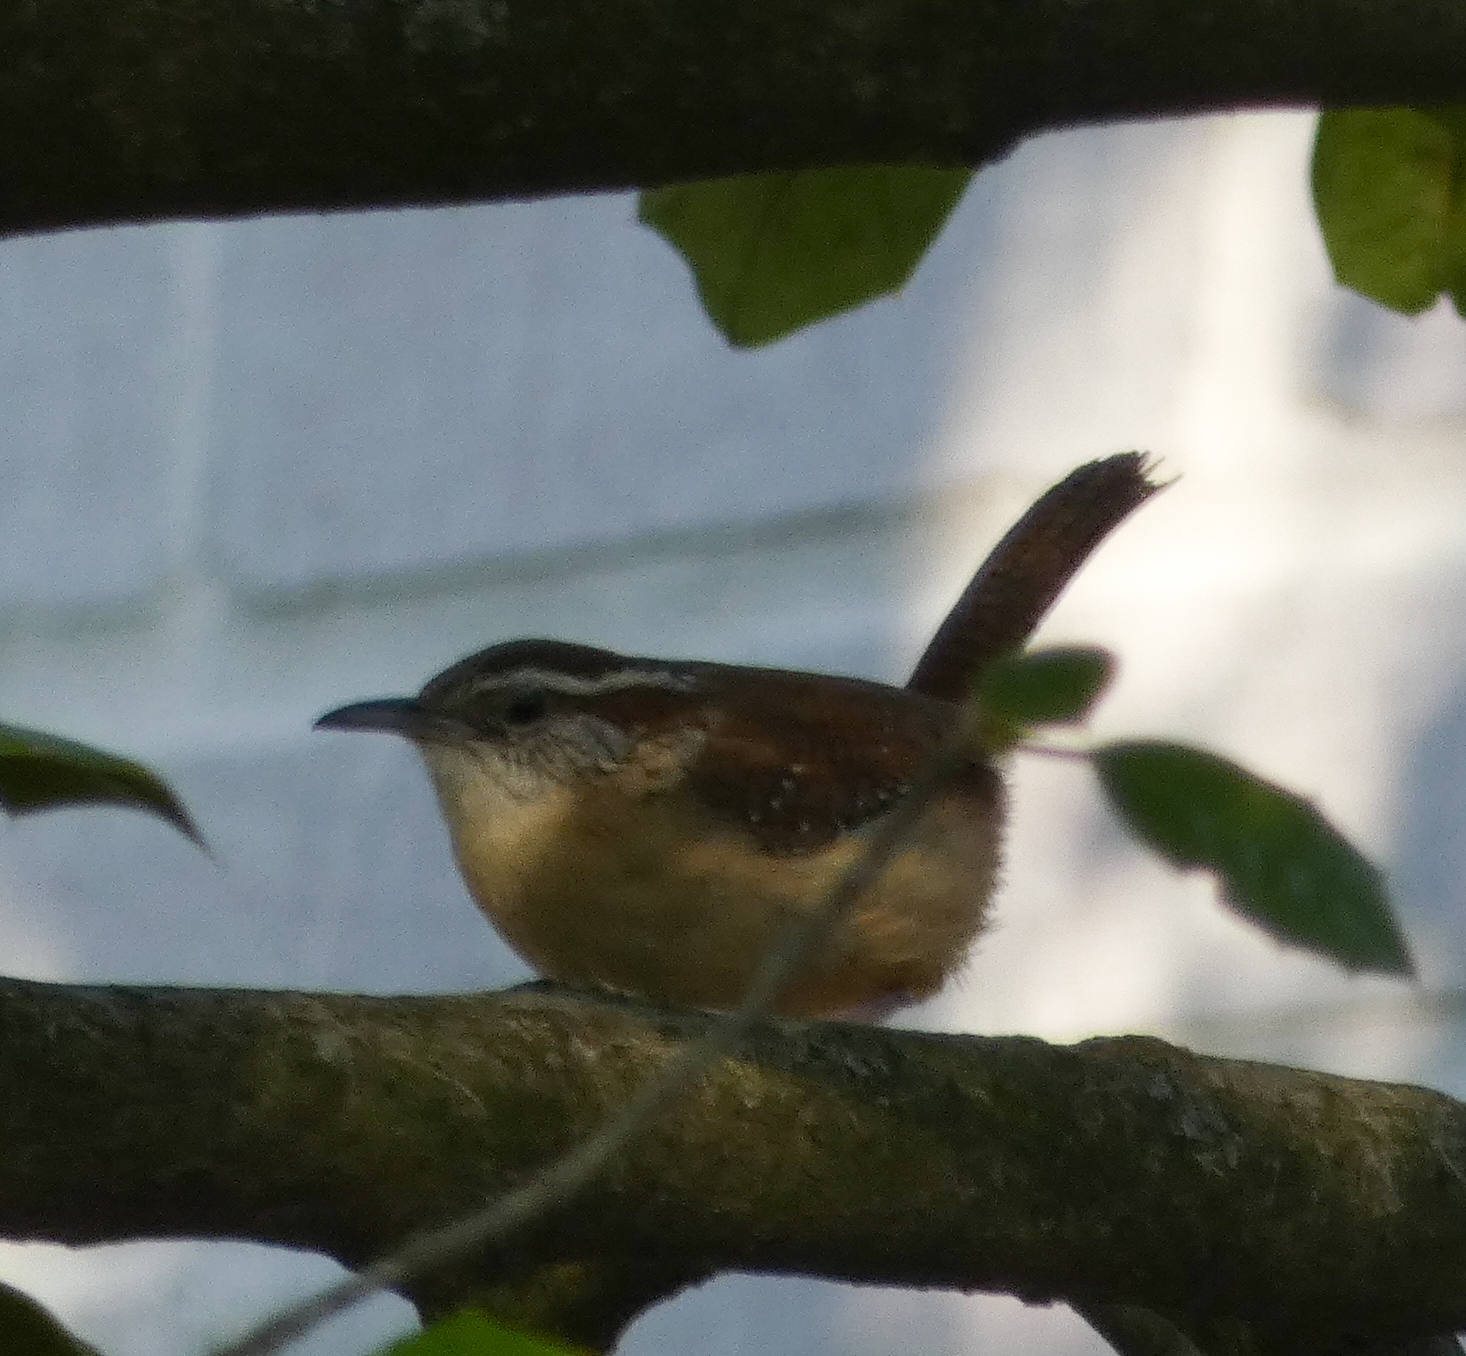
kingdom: Animalia
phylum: Chordata
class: Aves
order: Passeriformes
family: Troglodytidae
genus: Thryothorus
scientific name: Thryothorus ludovicianus
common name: Carolina wren
